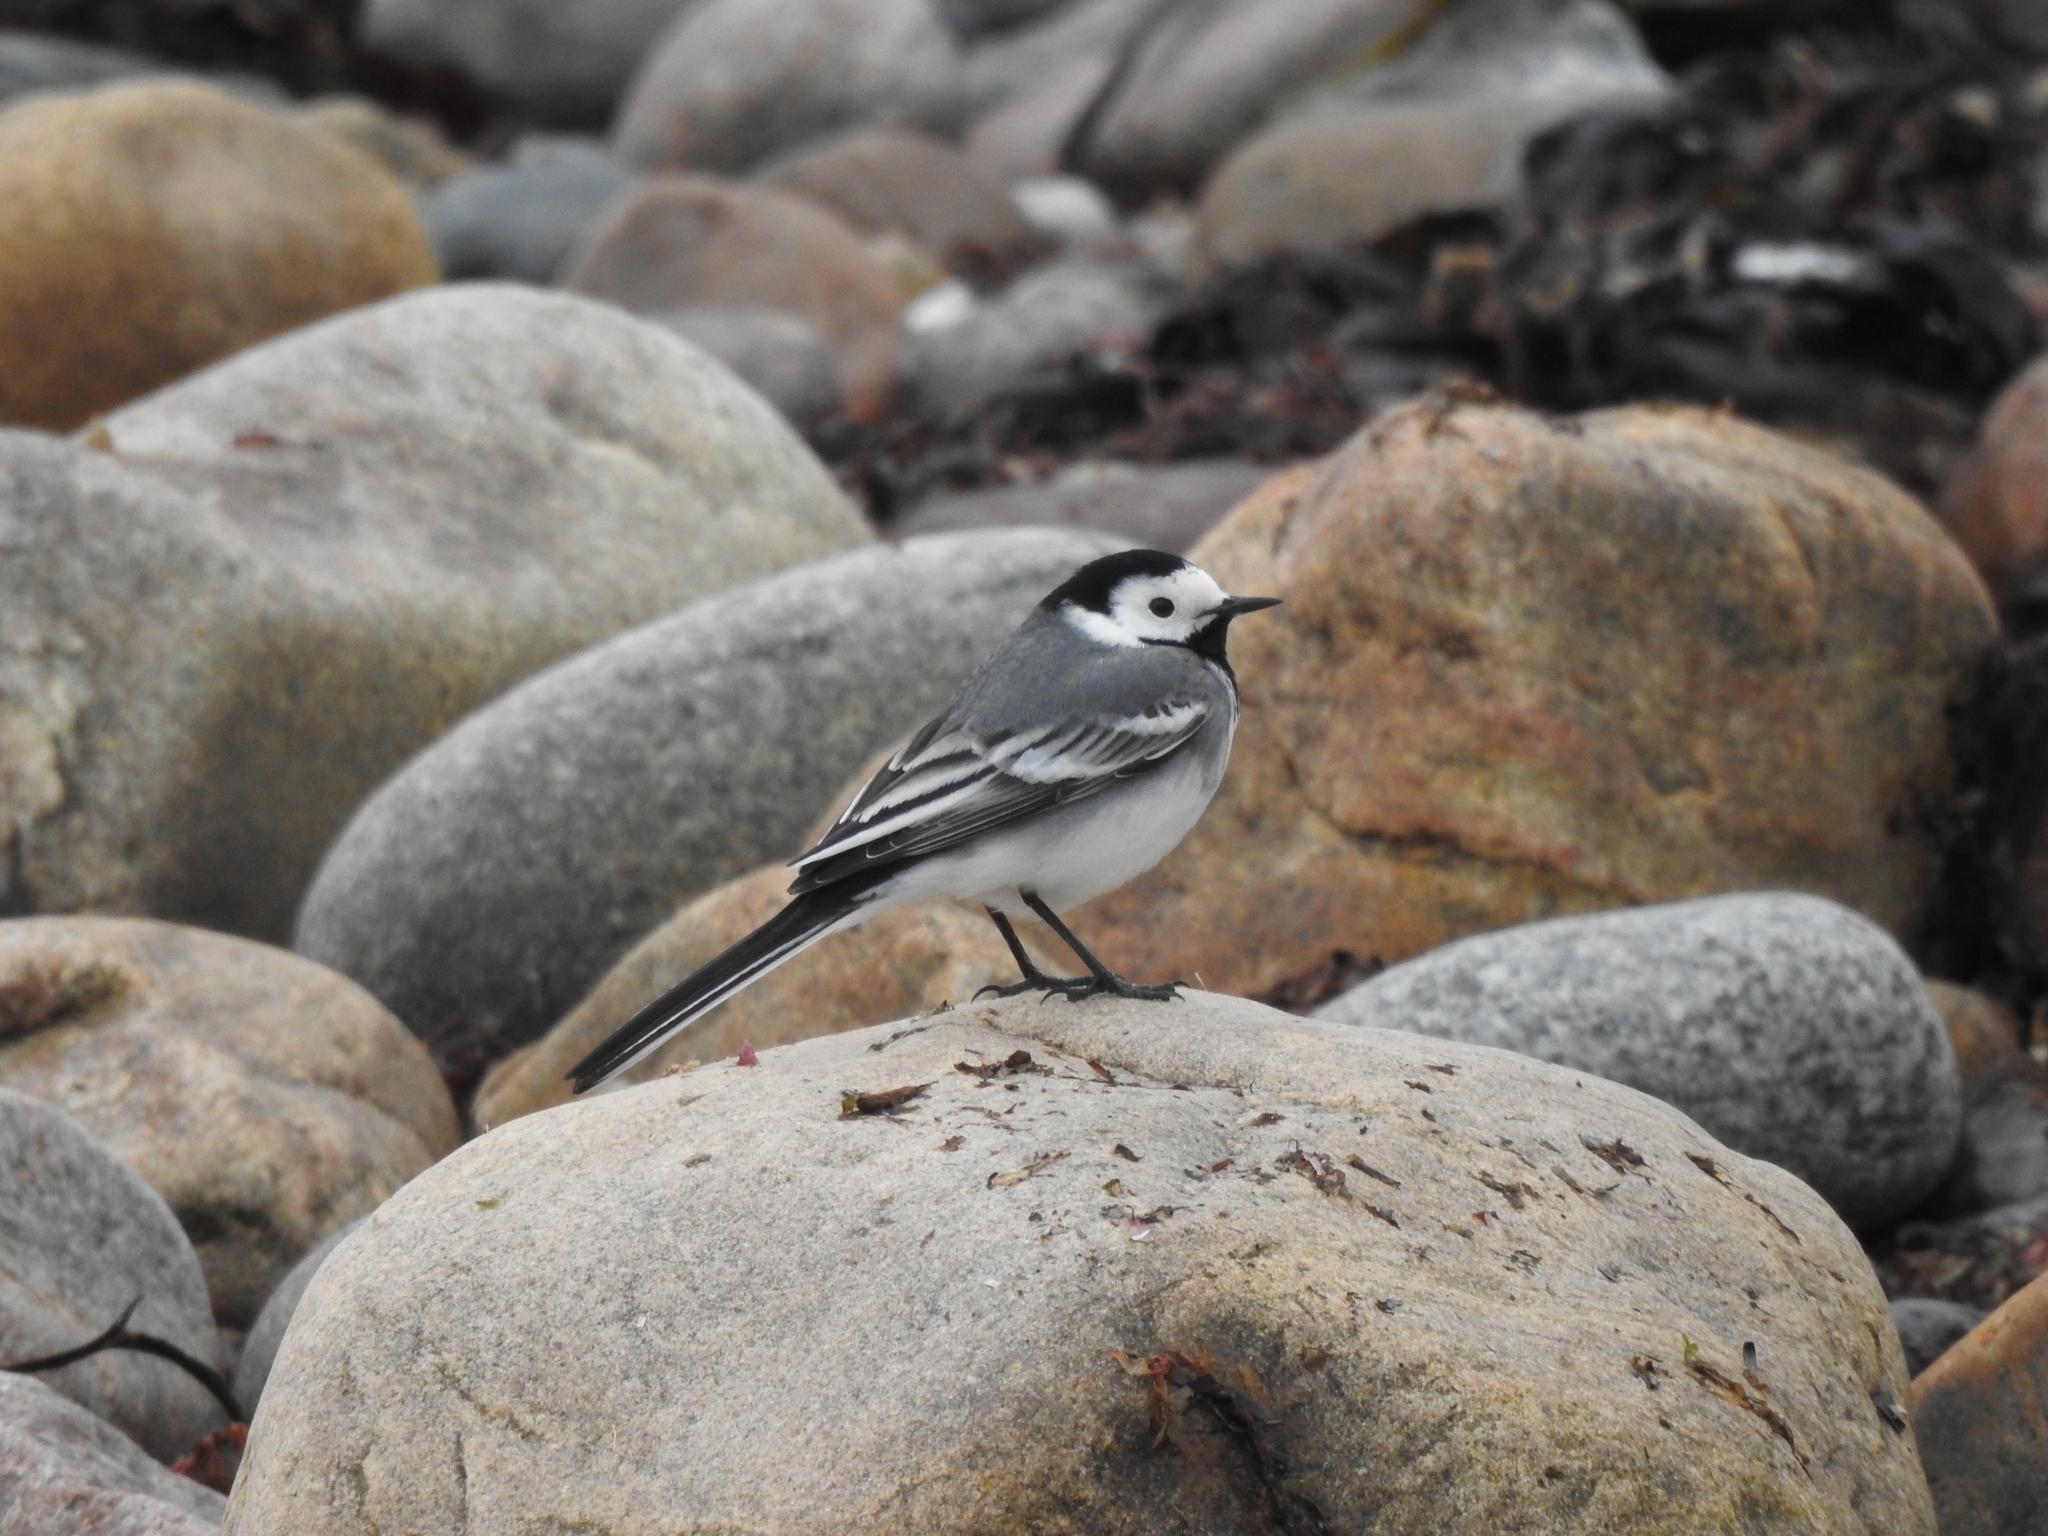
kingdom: Animalia
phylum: Chordata
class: Aves
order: Passeriformes
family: Motacillidae
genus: Motacilla
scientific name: Motacilla alba
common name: White wagtail
